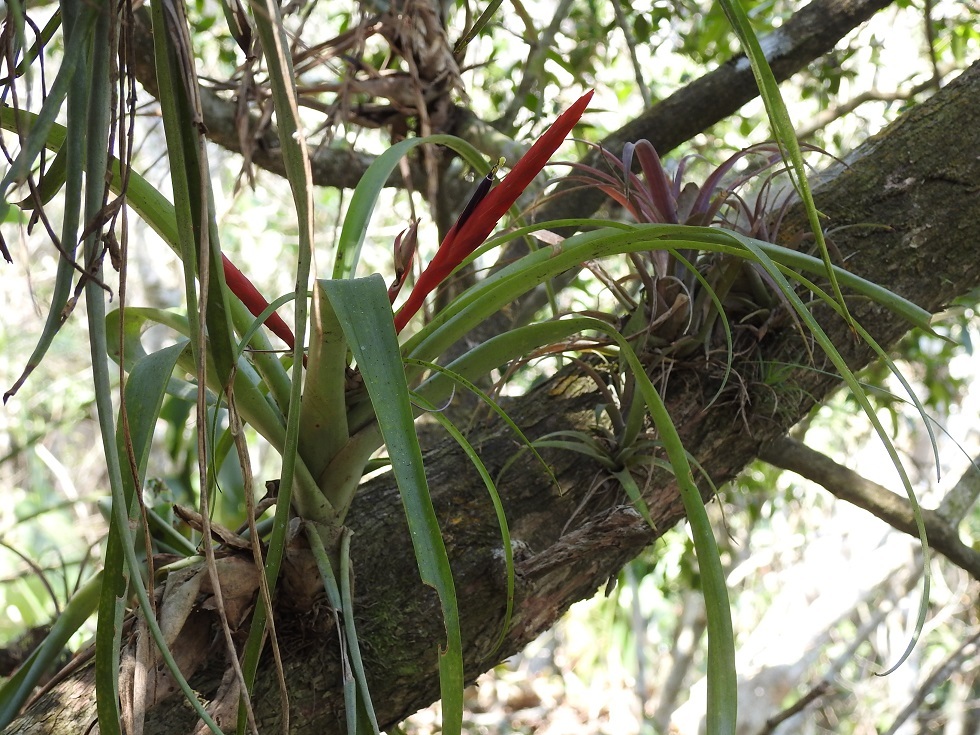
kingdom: Plantae
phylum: Tracheophyta
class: Liliopsida
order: Poales
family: Bromeliaceae
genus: Tillandsia
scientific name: Tillandsia flabellata
